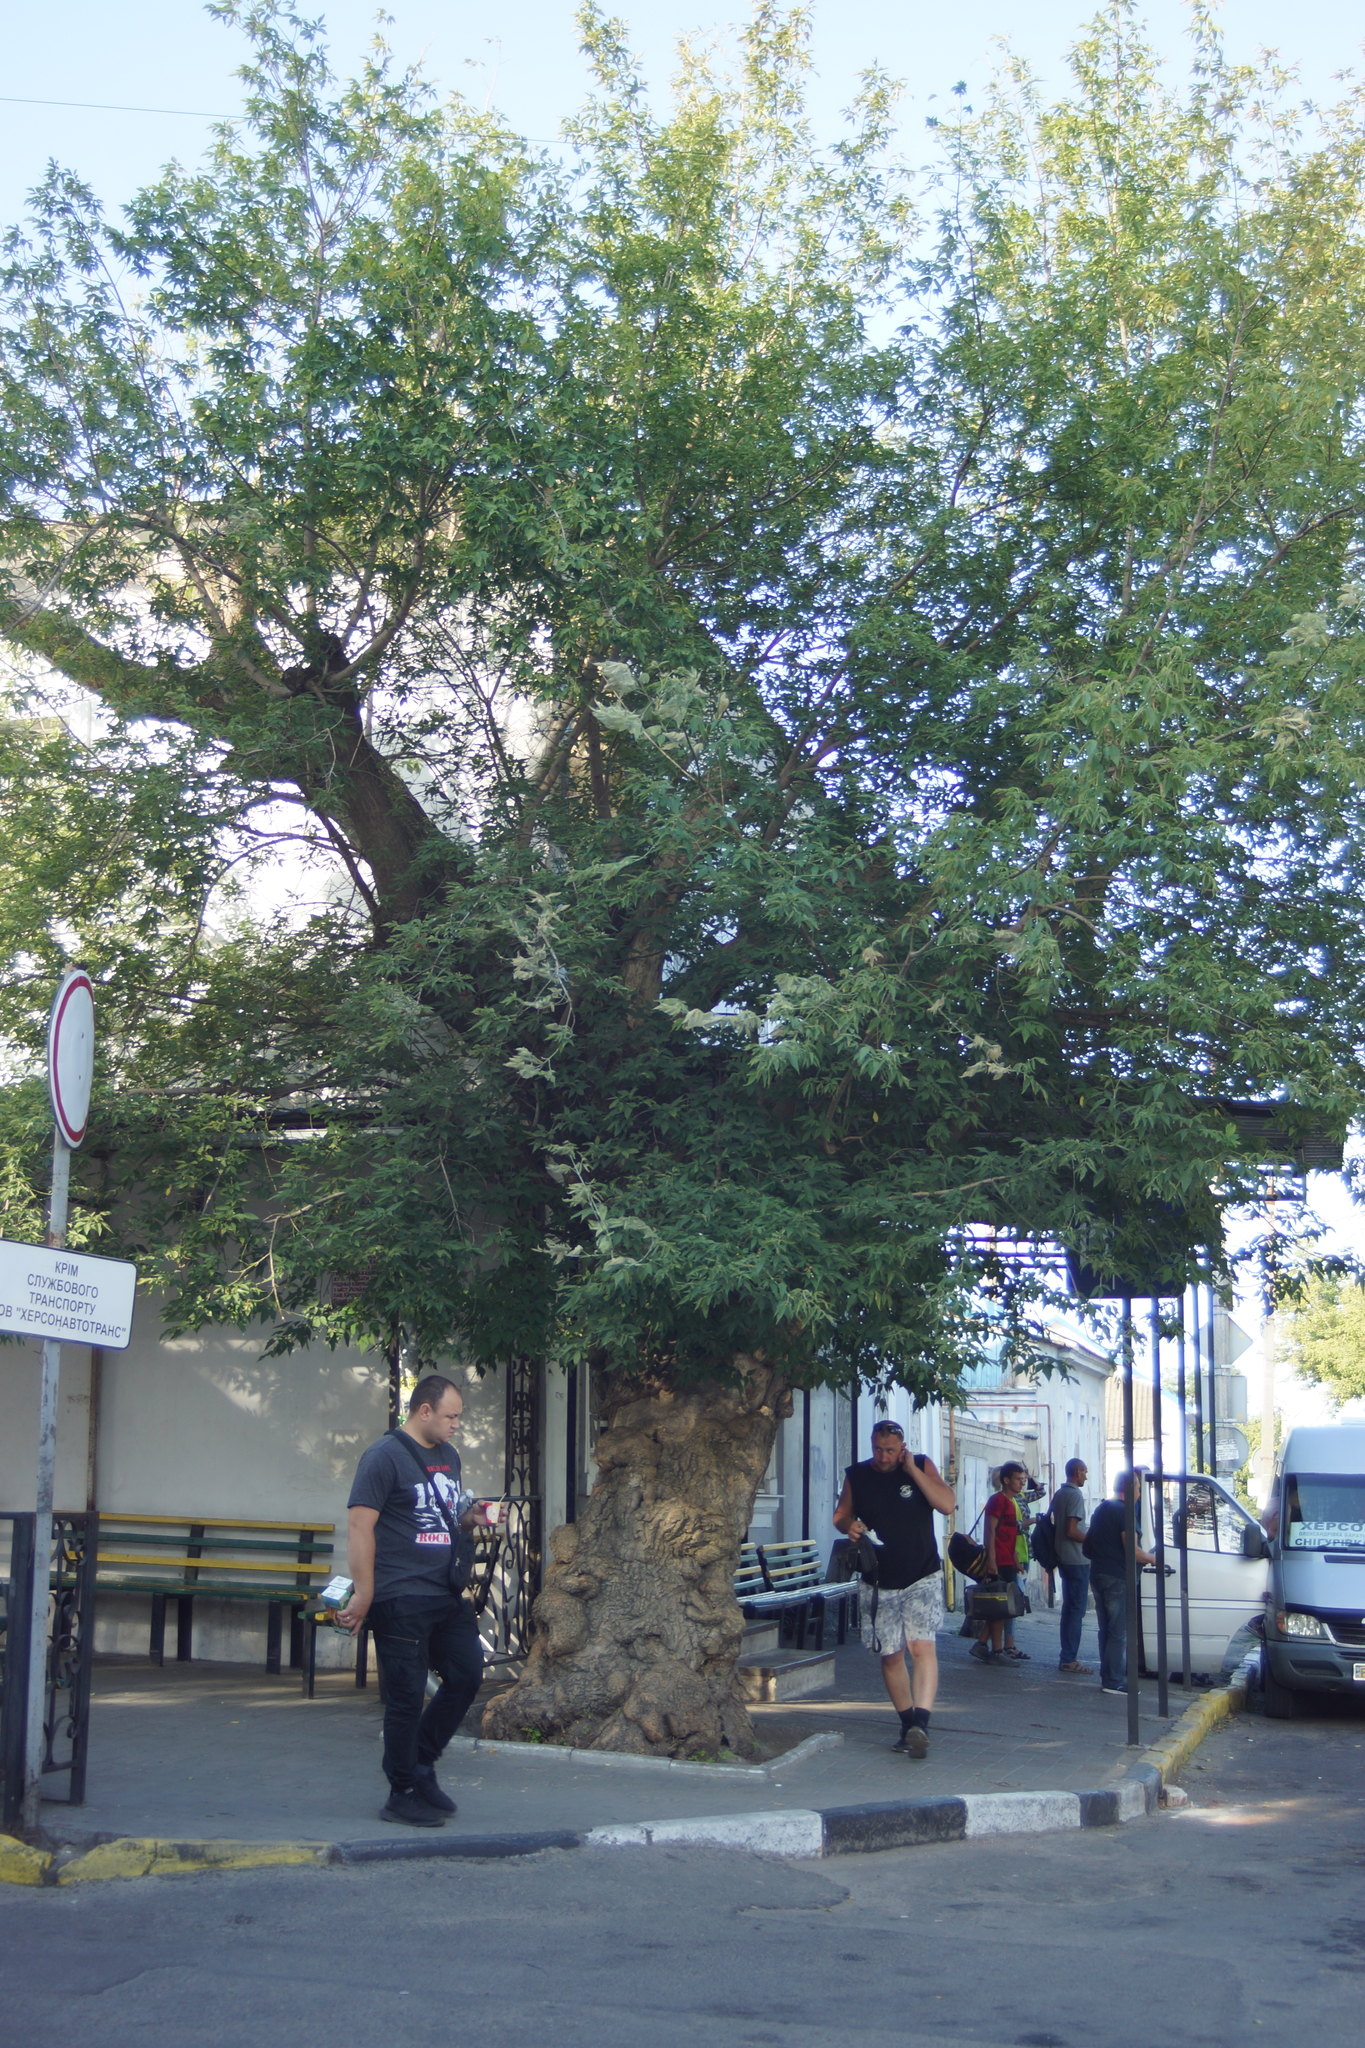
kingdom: Plantae
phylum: Tracheophyta
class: Magnoliopsida
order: Sapindales
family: Sapindaceae
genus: Acer
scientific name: Acer negundo
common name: Ashleaf maple
